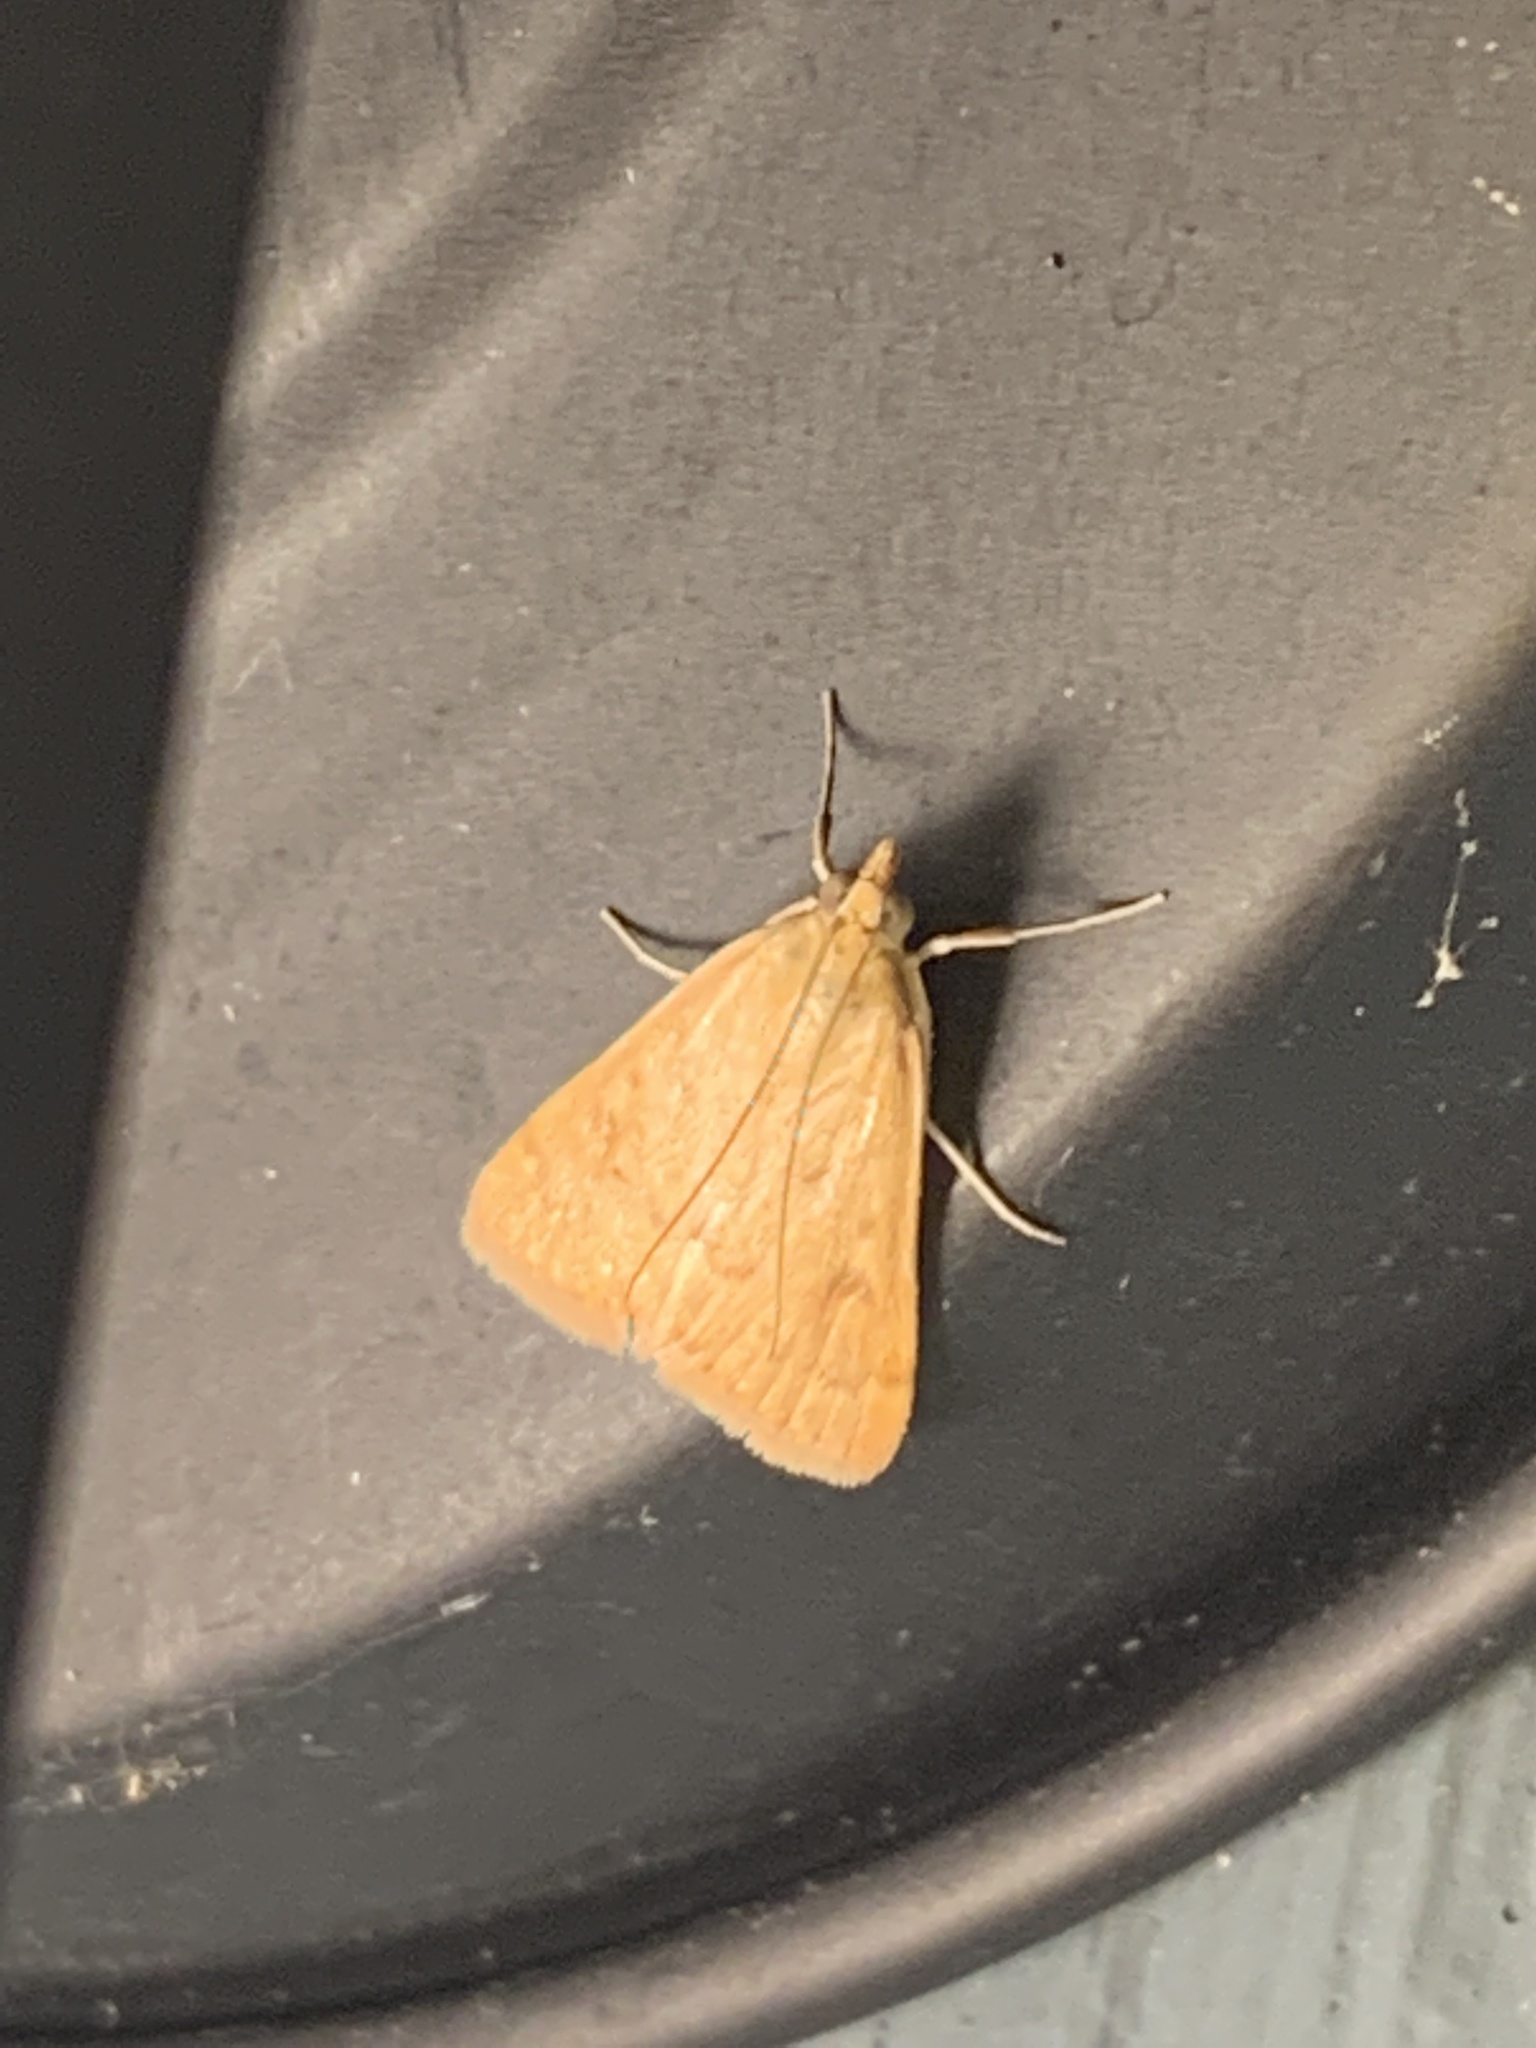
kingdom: Animalia
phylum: Arthropoda
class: Insecta
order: Lepidoptera
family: Crambidae
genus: Achyra
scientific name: Achyra rantalis
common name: Garden webworm
